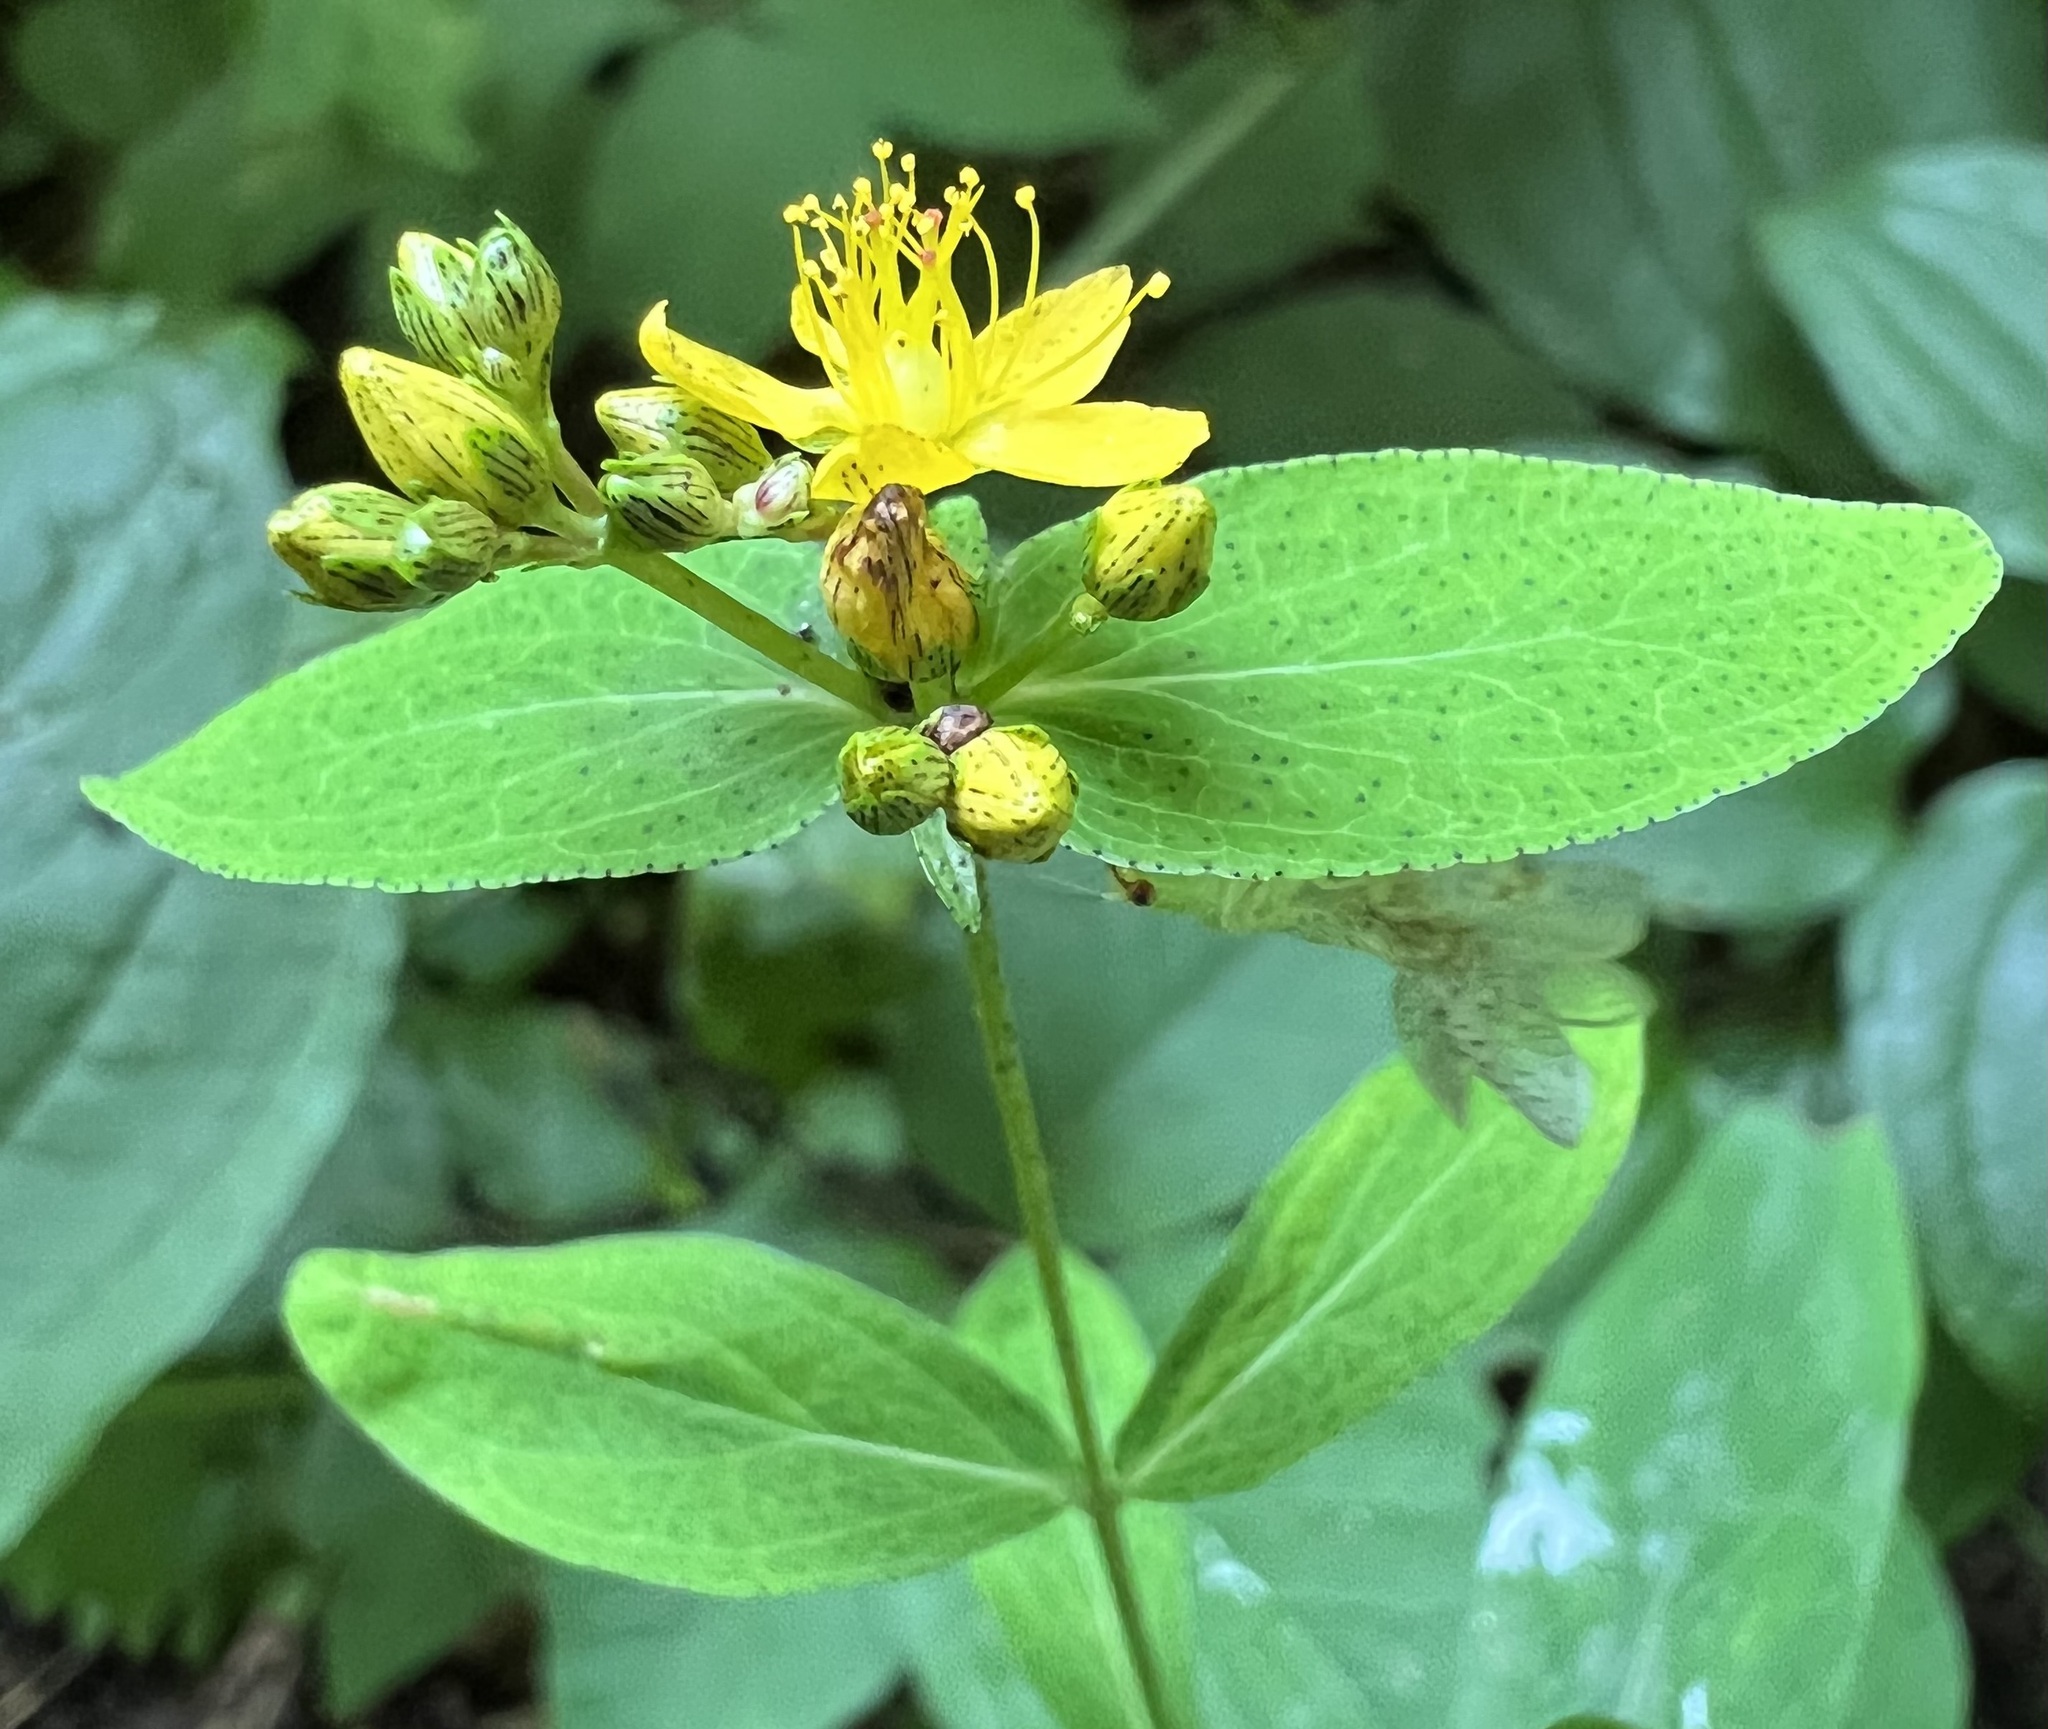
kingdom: Plantae
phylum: Tracheophyta
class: Magnoliopsida
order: Malpighiales
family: Hypericaceae
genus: Hypericum
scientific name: Hypericum punctatum
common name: Spotted st. john's-wort
